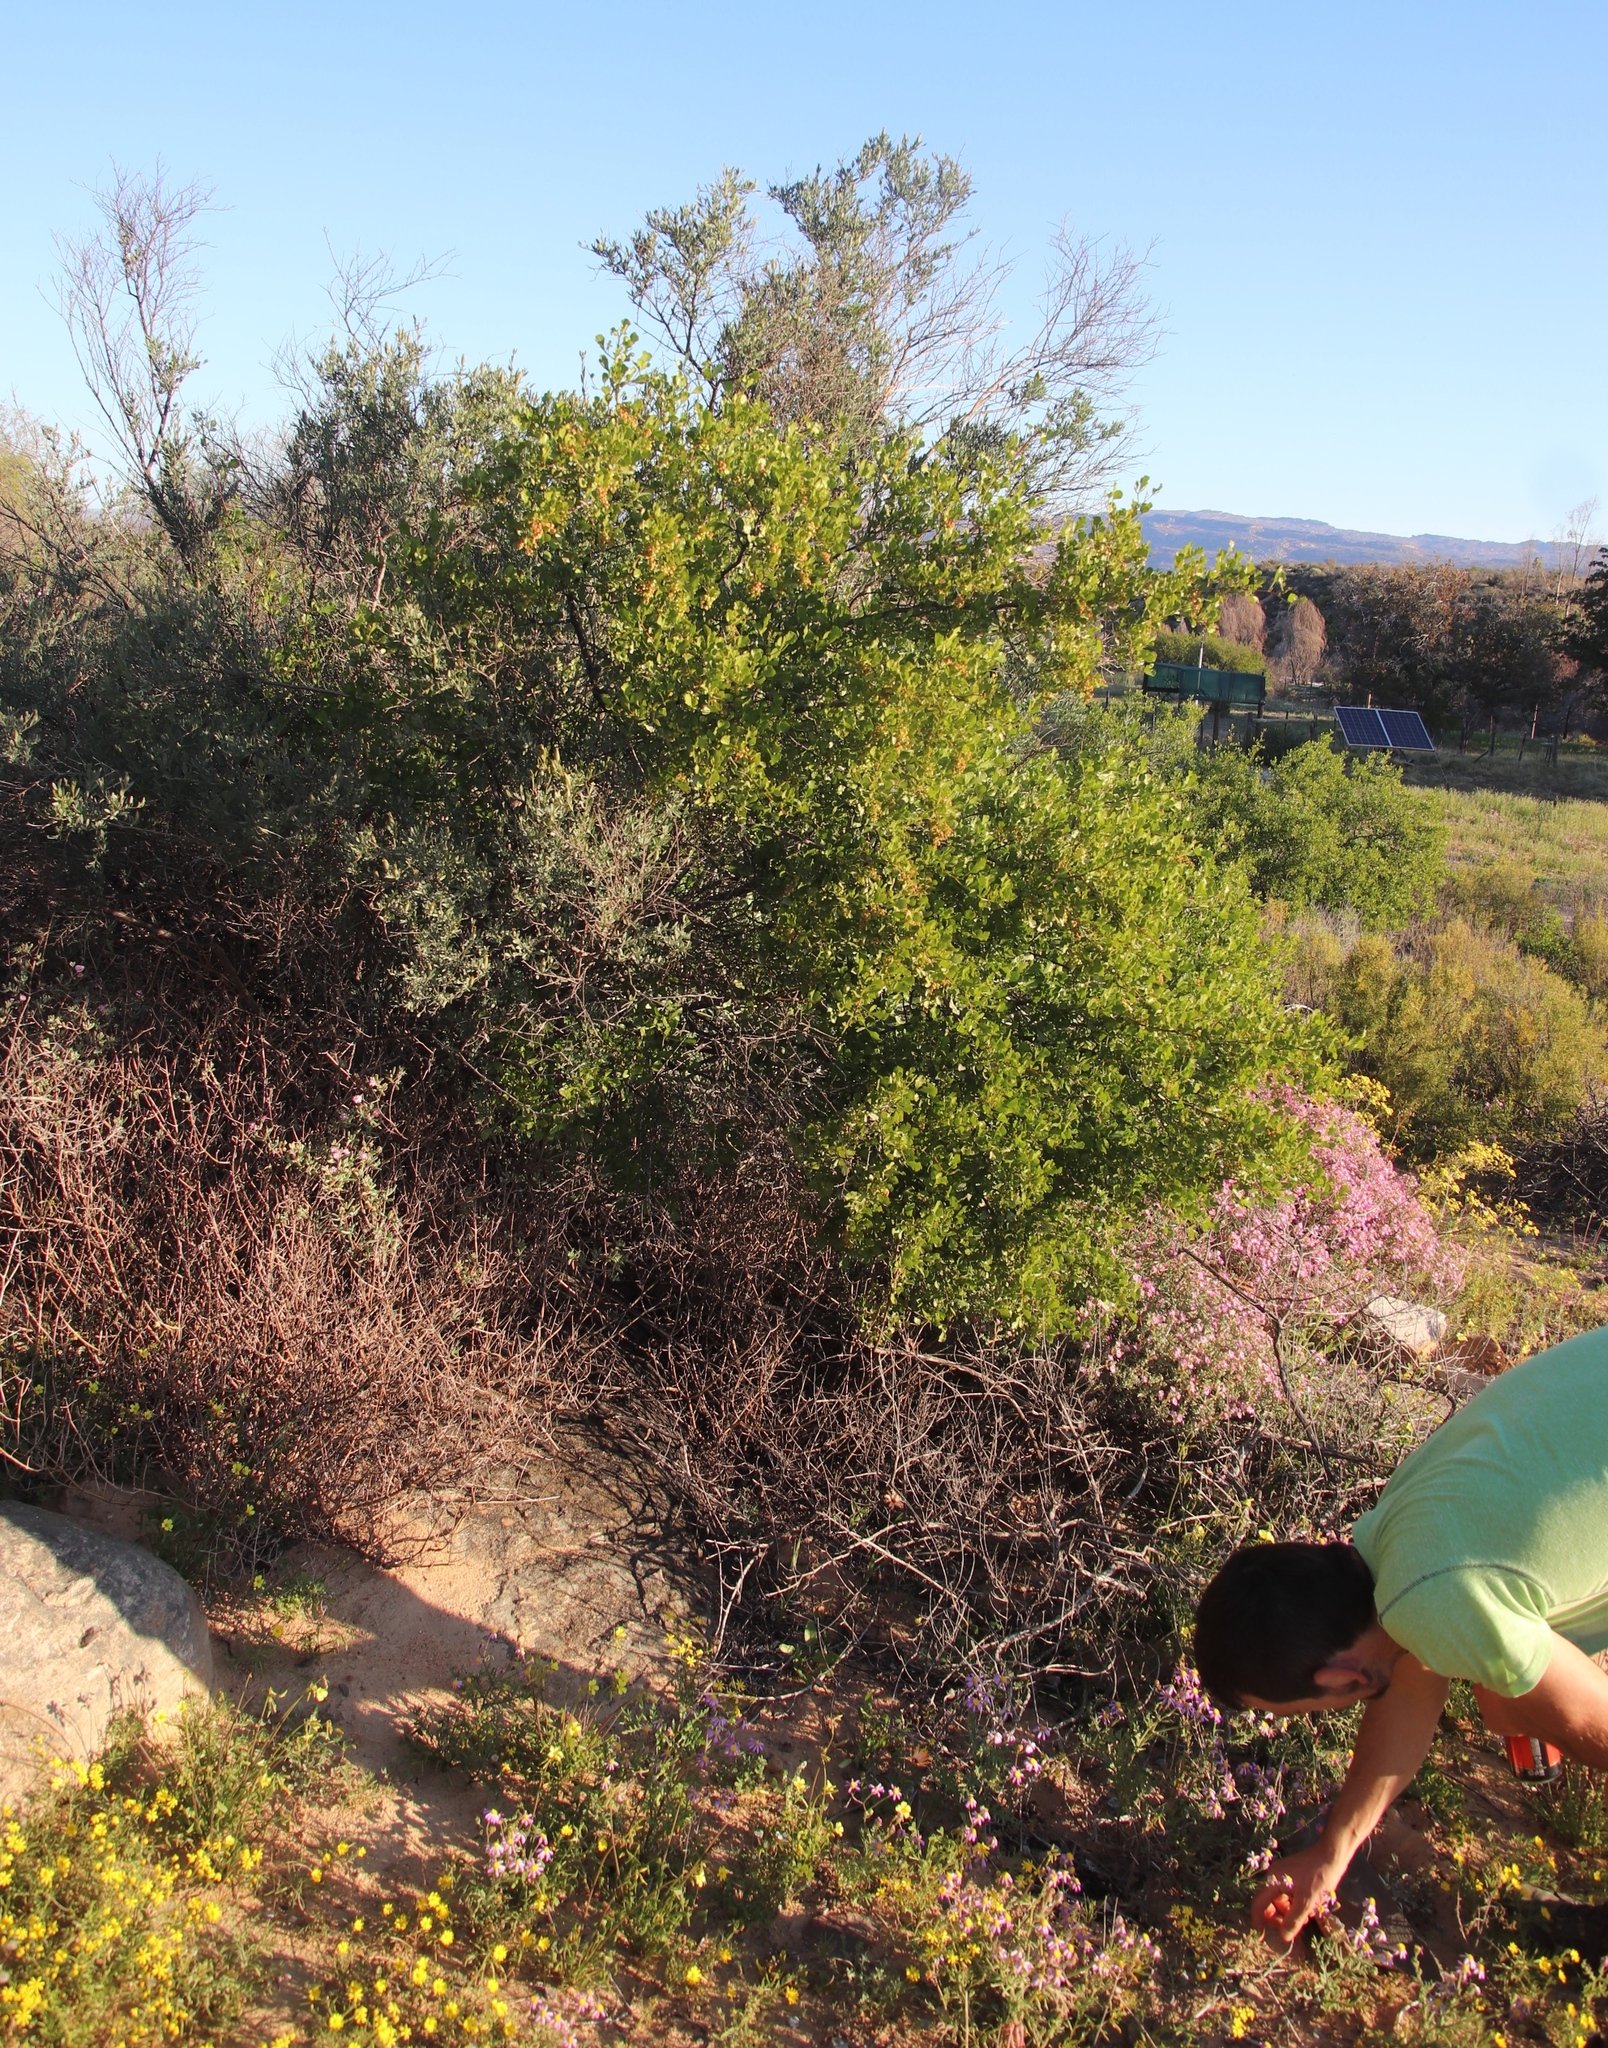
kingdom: Plantae
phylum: Tracheophyta
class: Magnoliopsida
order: Sapindales
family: Anacardiaceae
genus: Searsia
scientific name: Searsia undulata
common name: Namaqua kunibush
